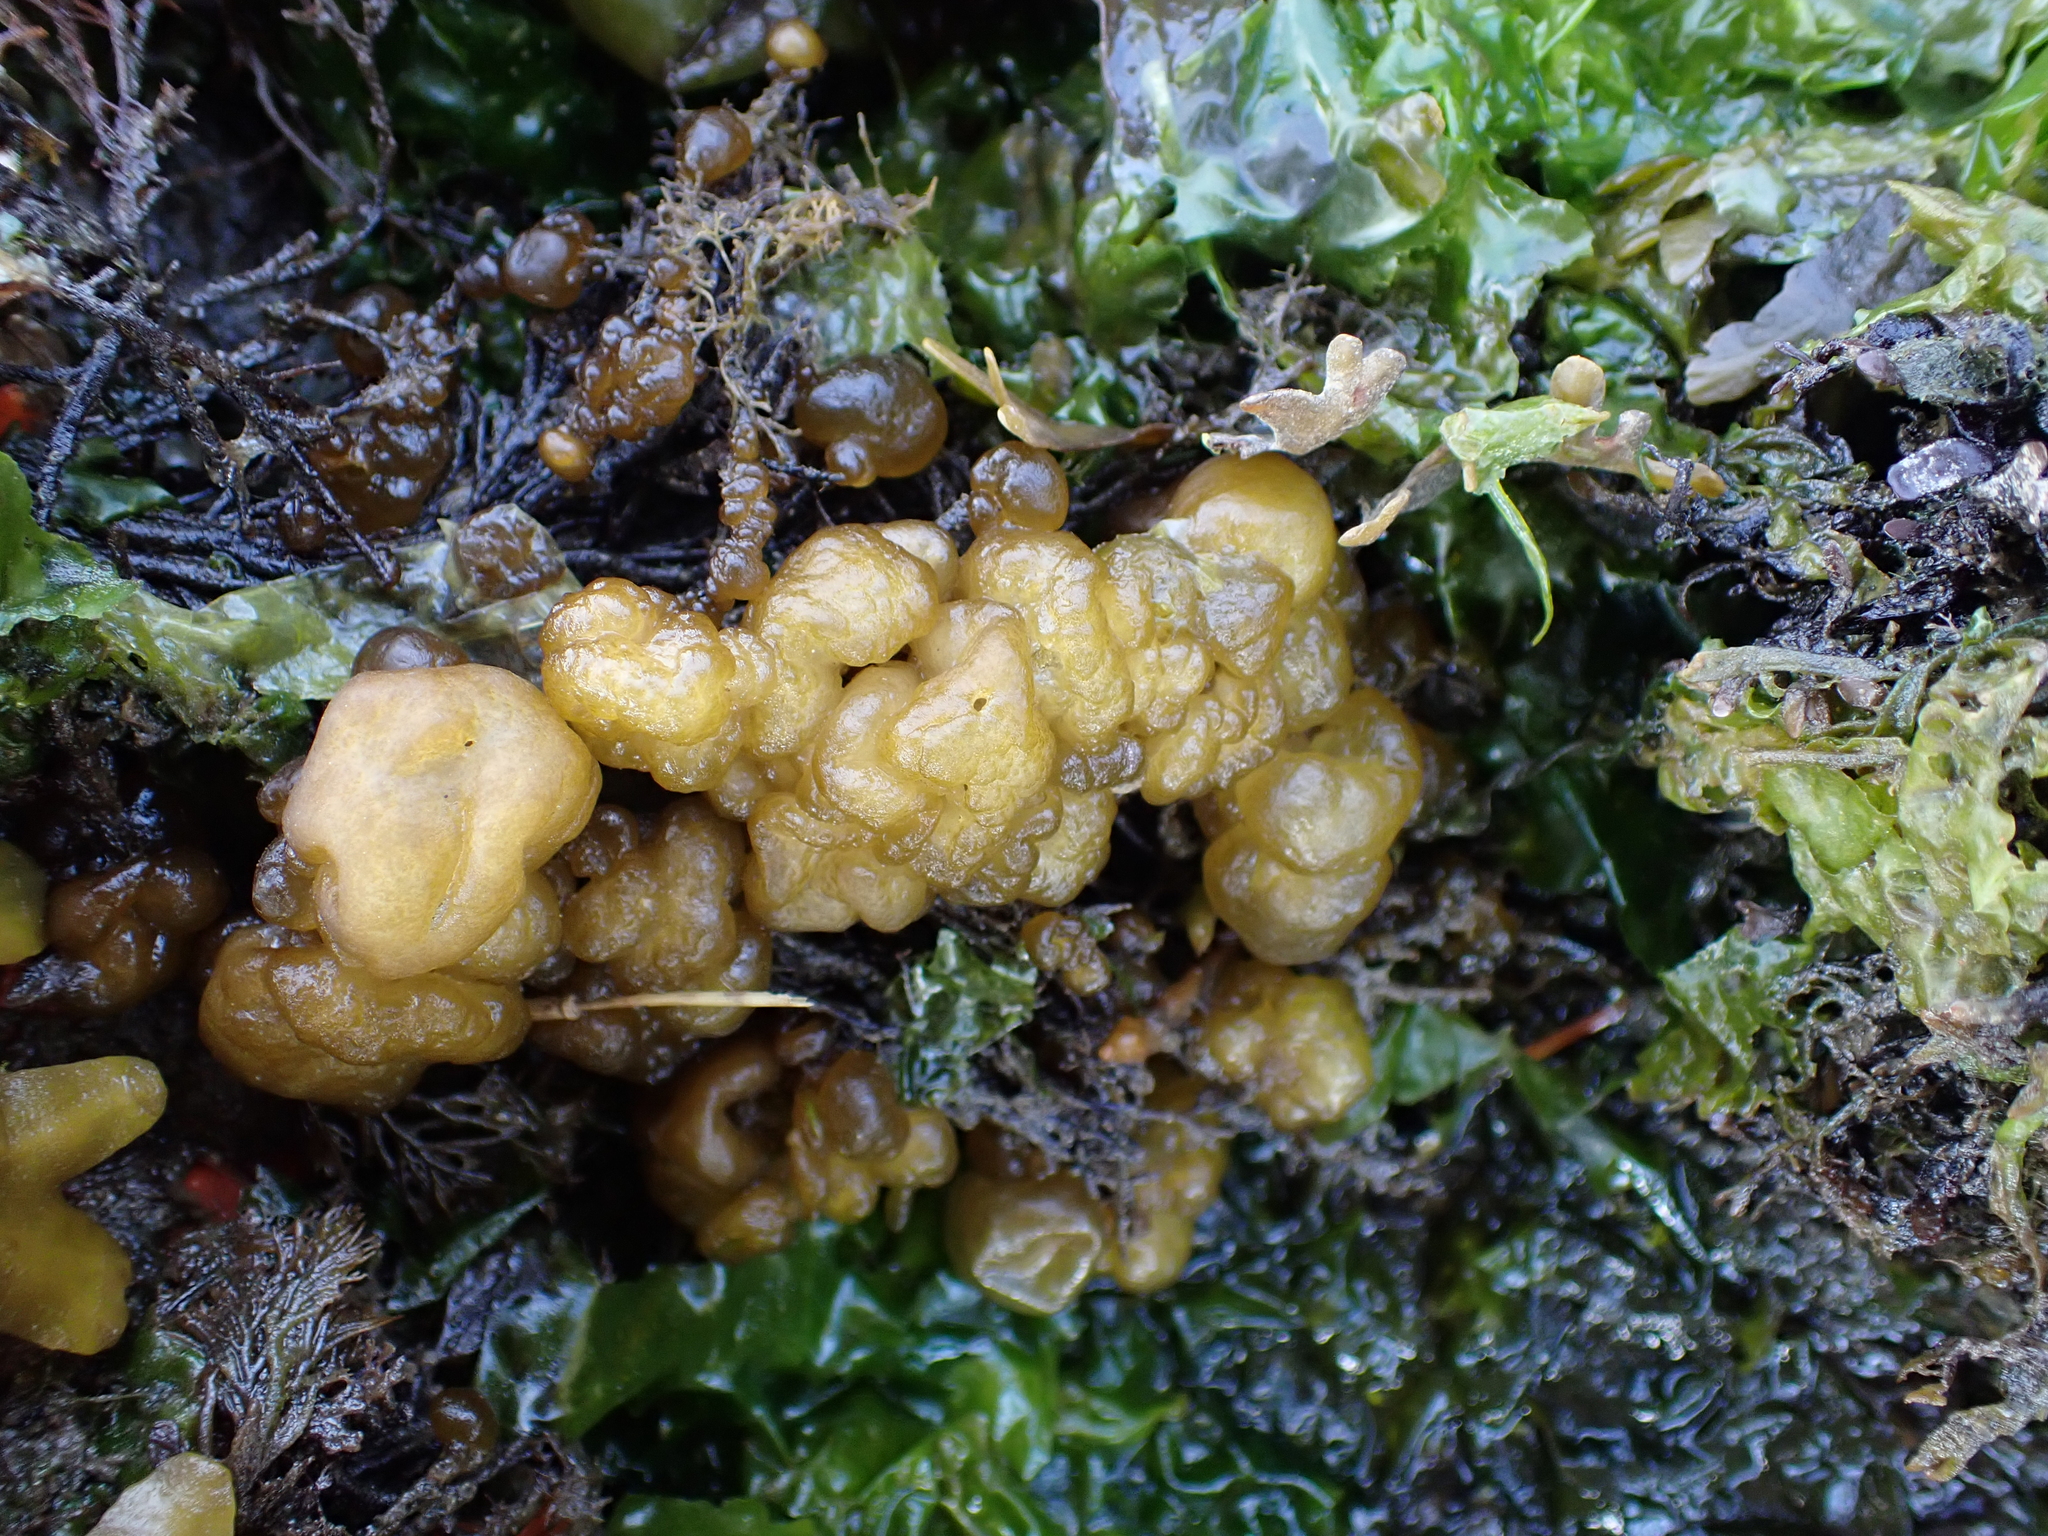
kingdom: Chromista
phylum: Ochrophyta
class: Phaeophyceae
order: Ectocarpales
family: Chordariaceae
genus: Leathesia
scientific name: Leathesia marina
